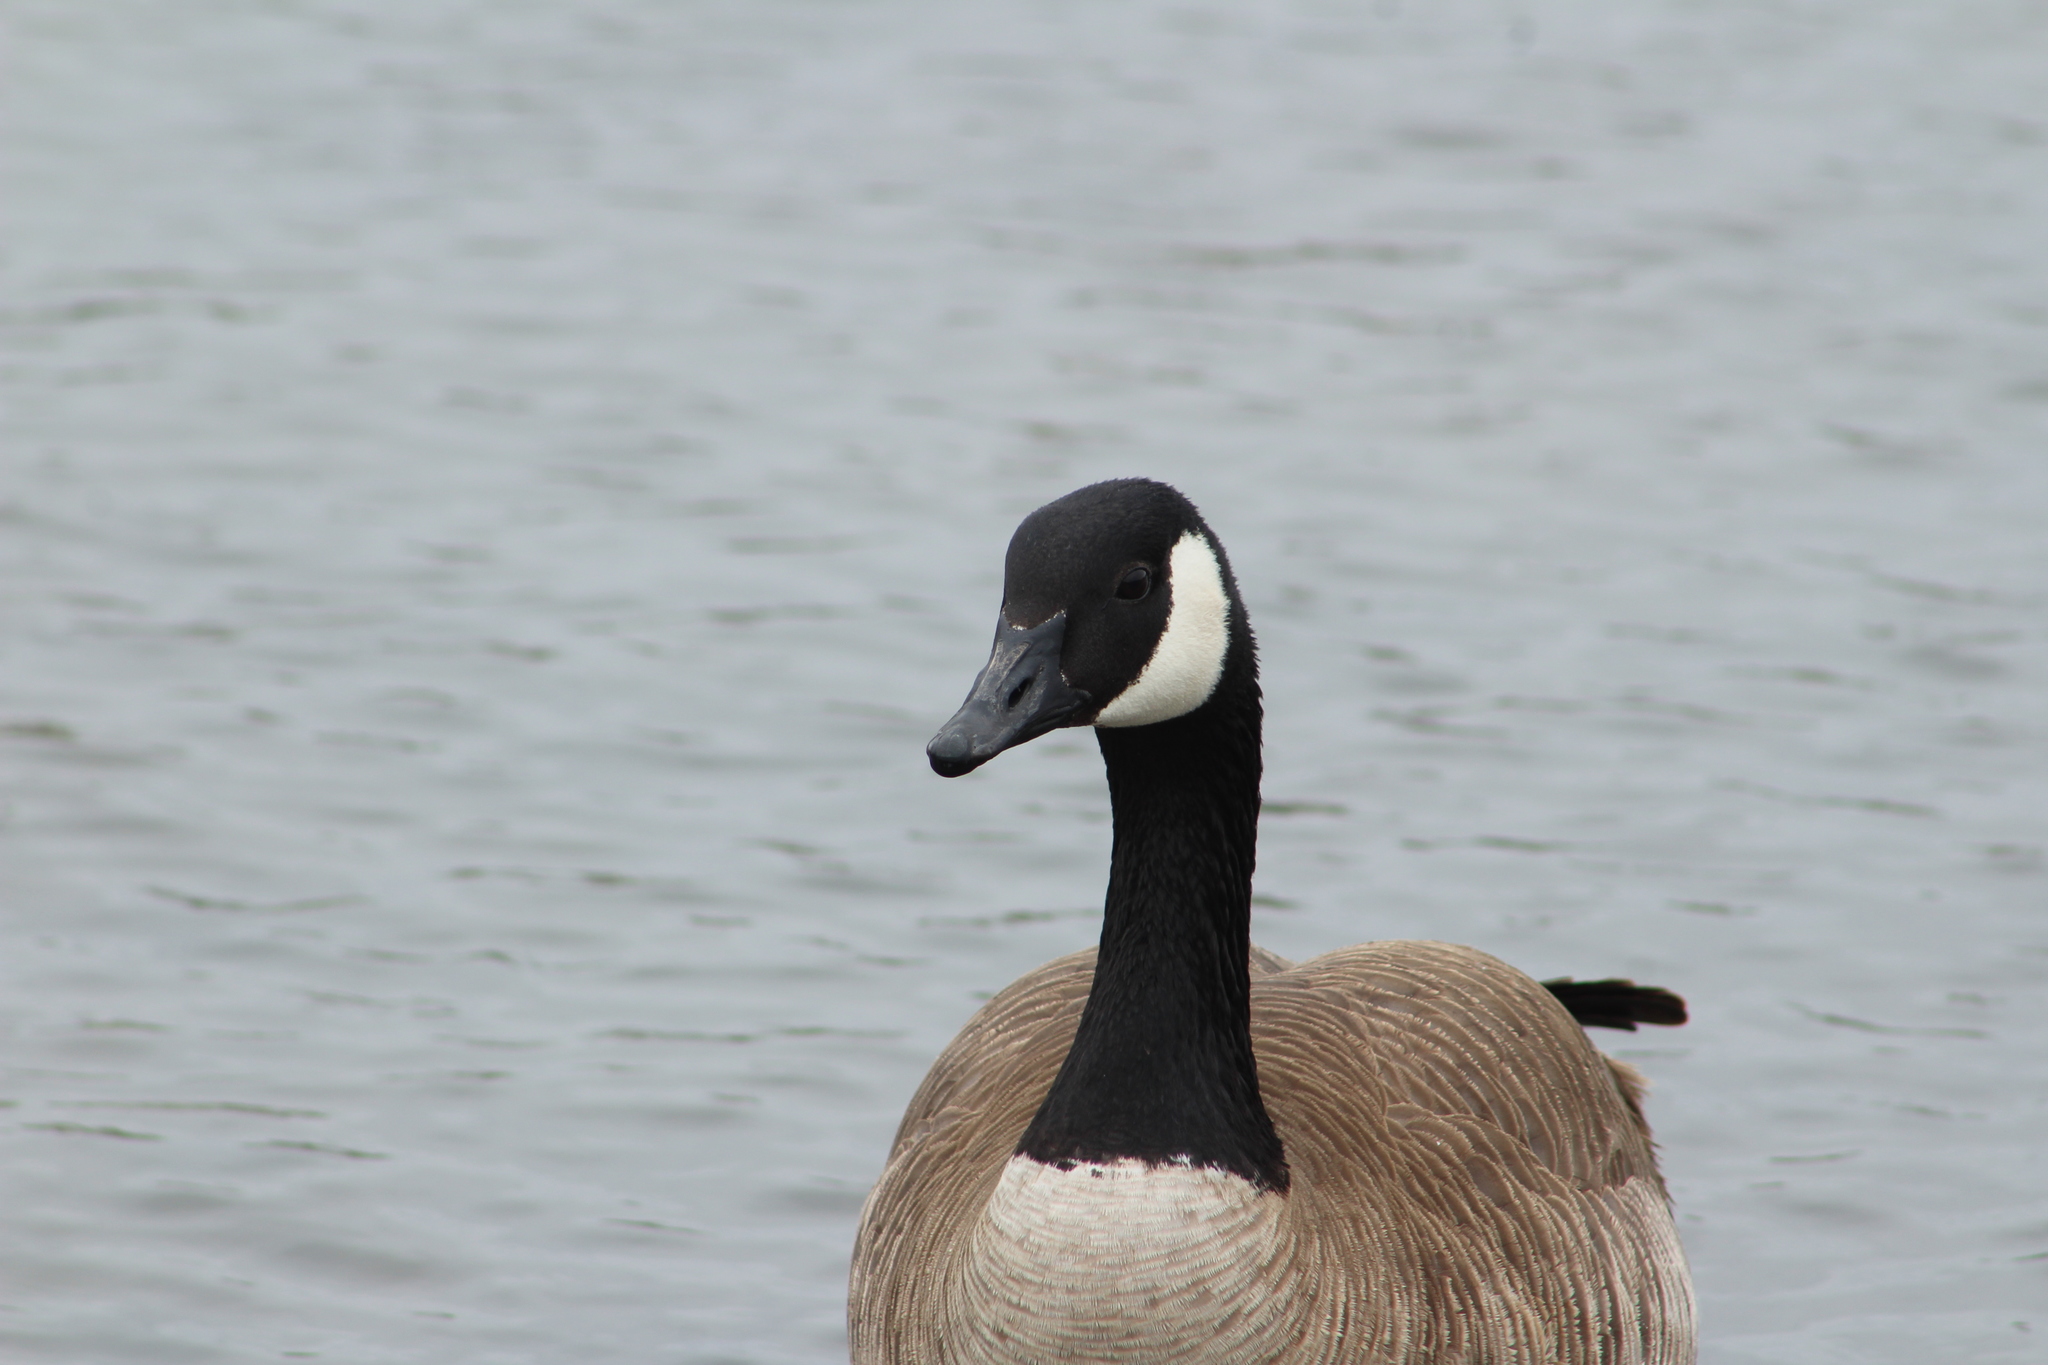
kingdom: Animalia
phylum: Chordata
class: Aves
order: Anseriformes
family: Anatidae
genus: Branta
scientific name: Branta canadensis
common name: Canada goose
